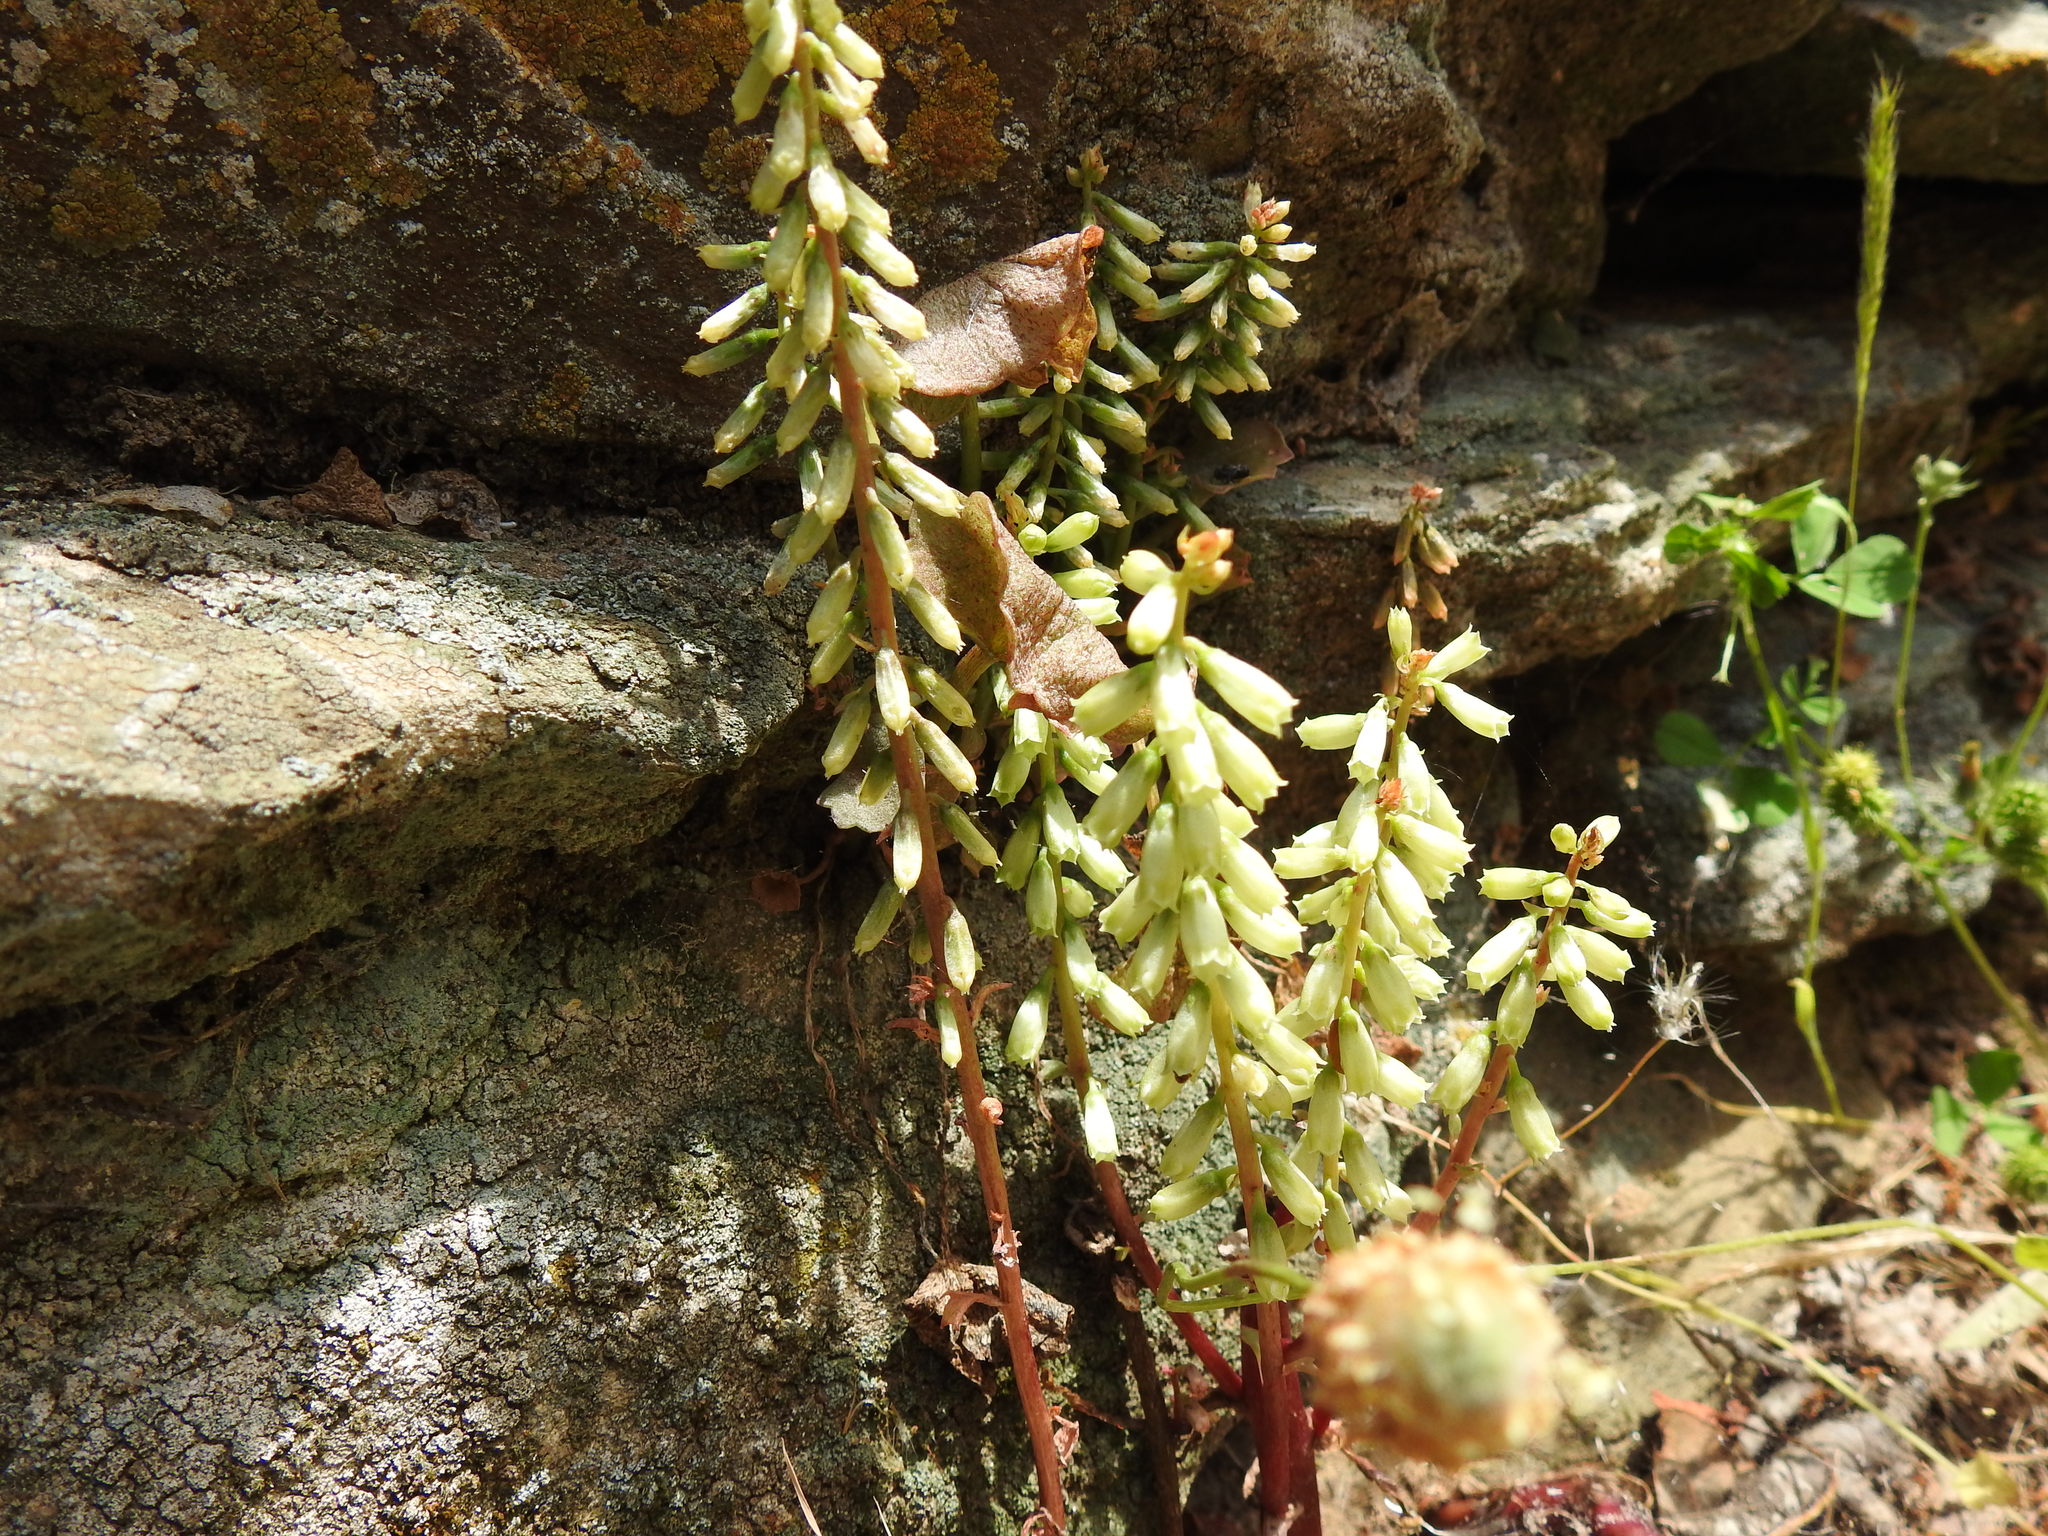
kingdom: Plantae
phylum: Tracheophyta
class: Magnoliopsida
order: Saxifragales
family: Crassulaceae
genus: Umbilicus
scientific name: Umbilicus rupestris
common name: Navelwort
